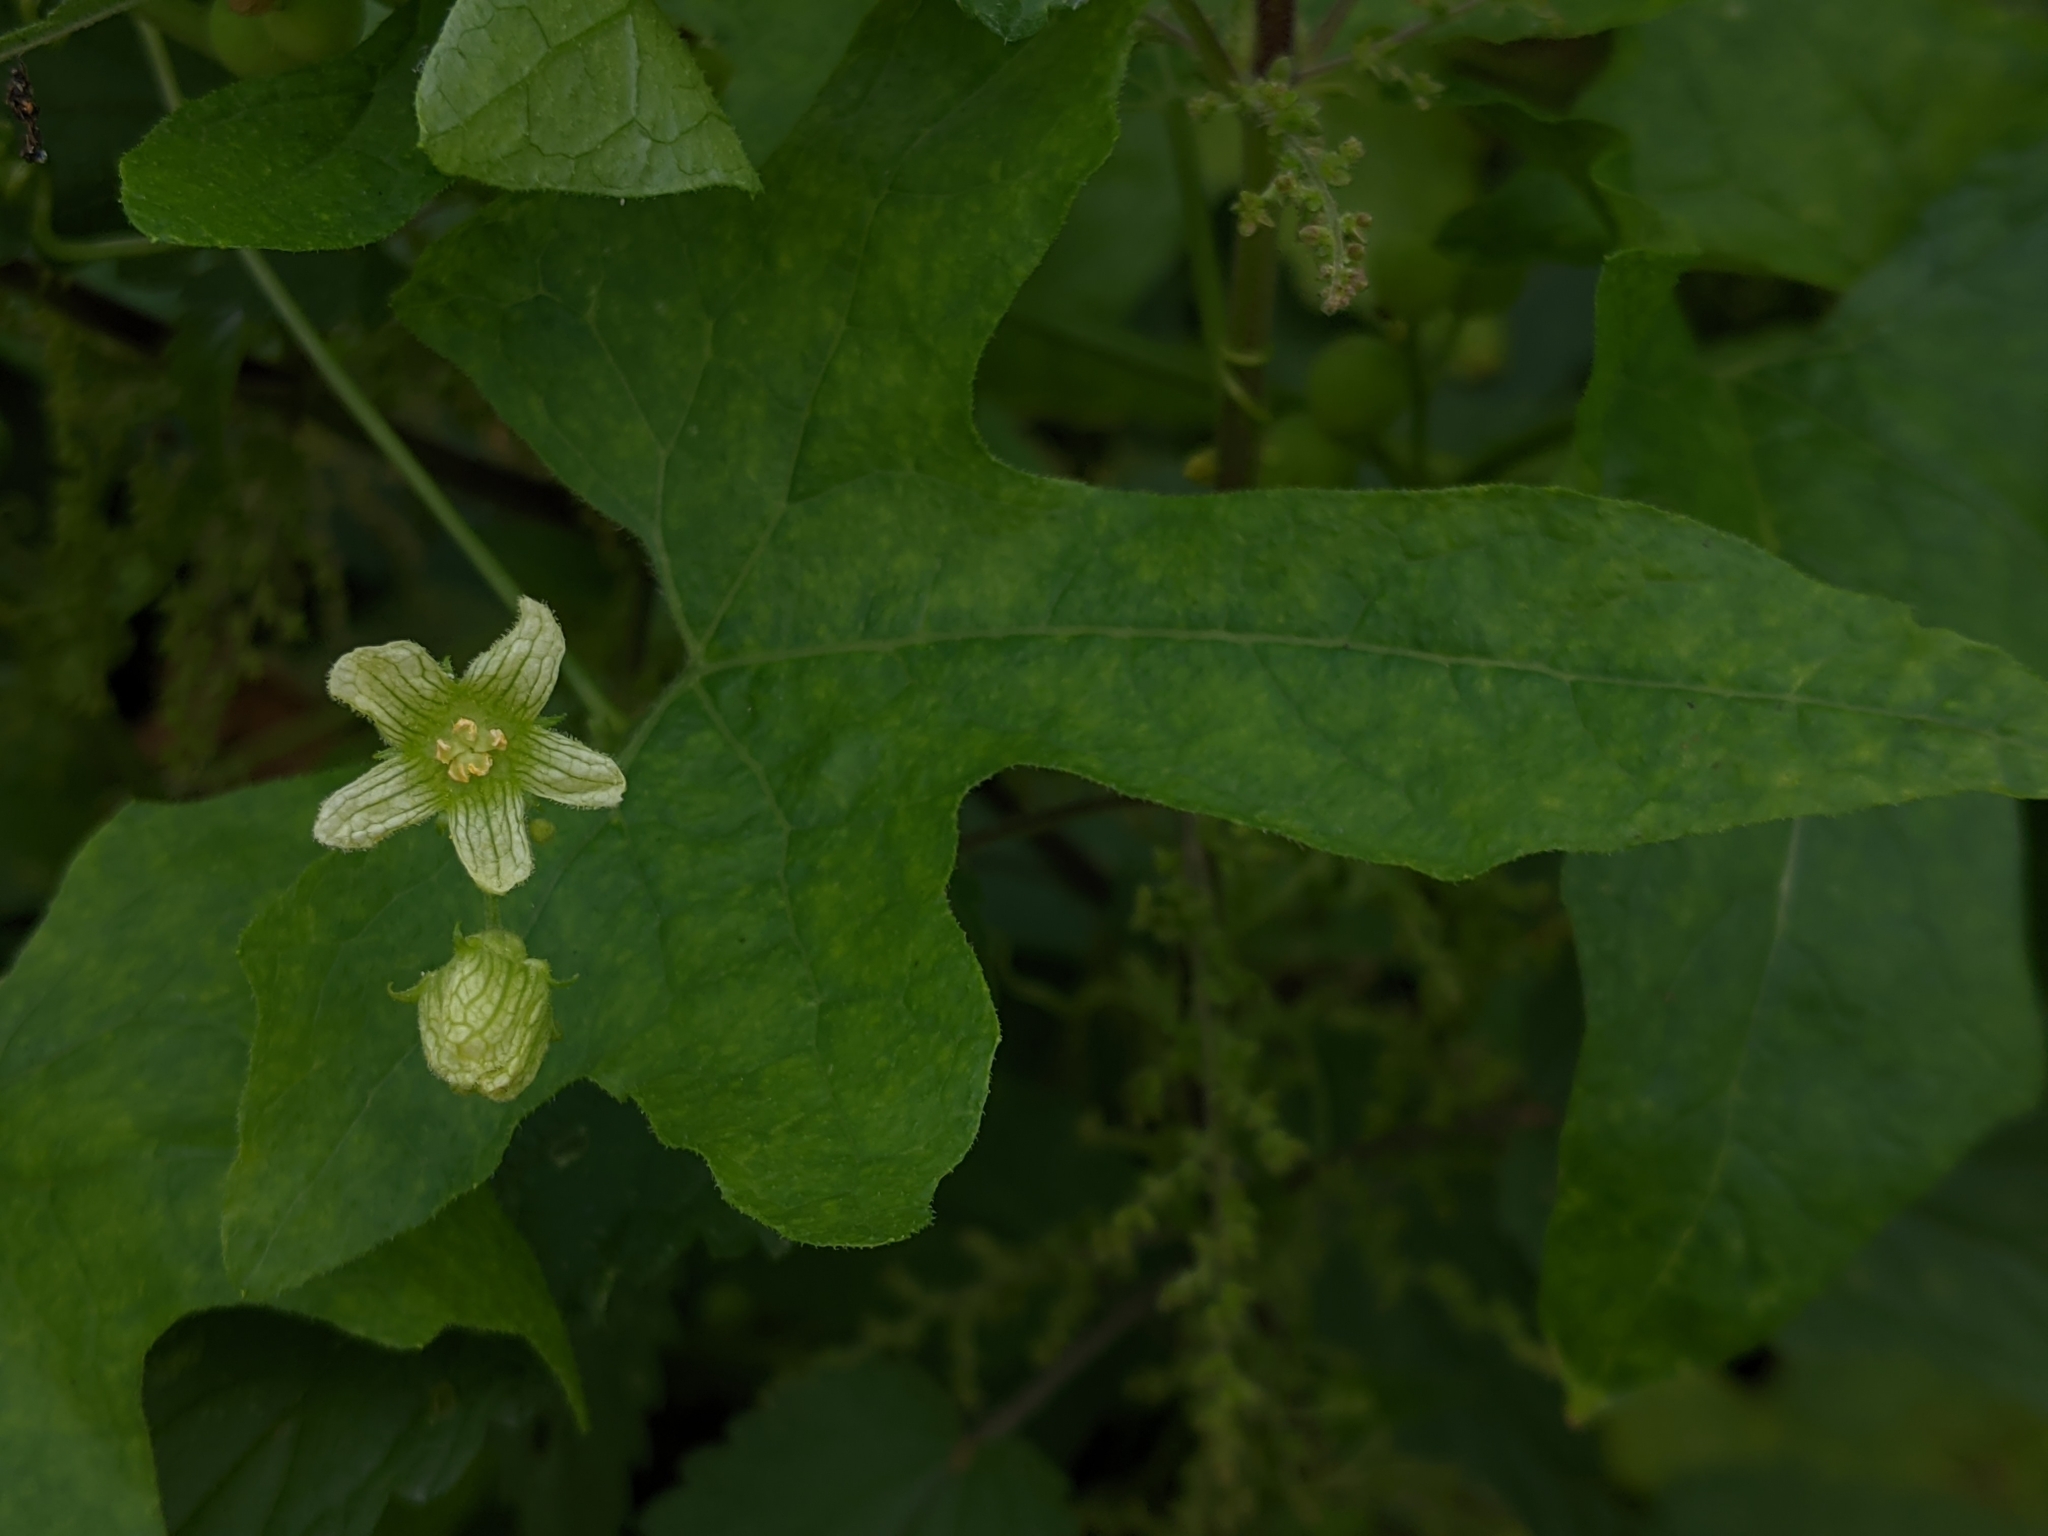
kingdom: Plantae
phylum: Tracheophyta
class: Magnoliopsida
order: Cucurbitales
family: Cucurbitaceae
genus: Bryonia
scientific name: Bryonia cretica
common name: Cretan bryony
